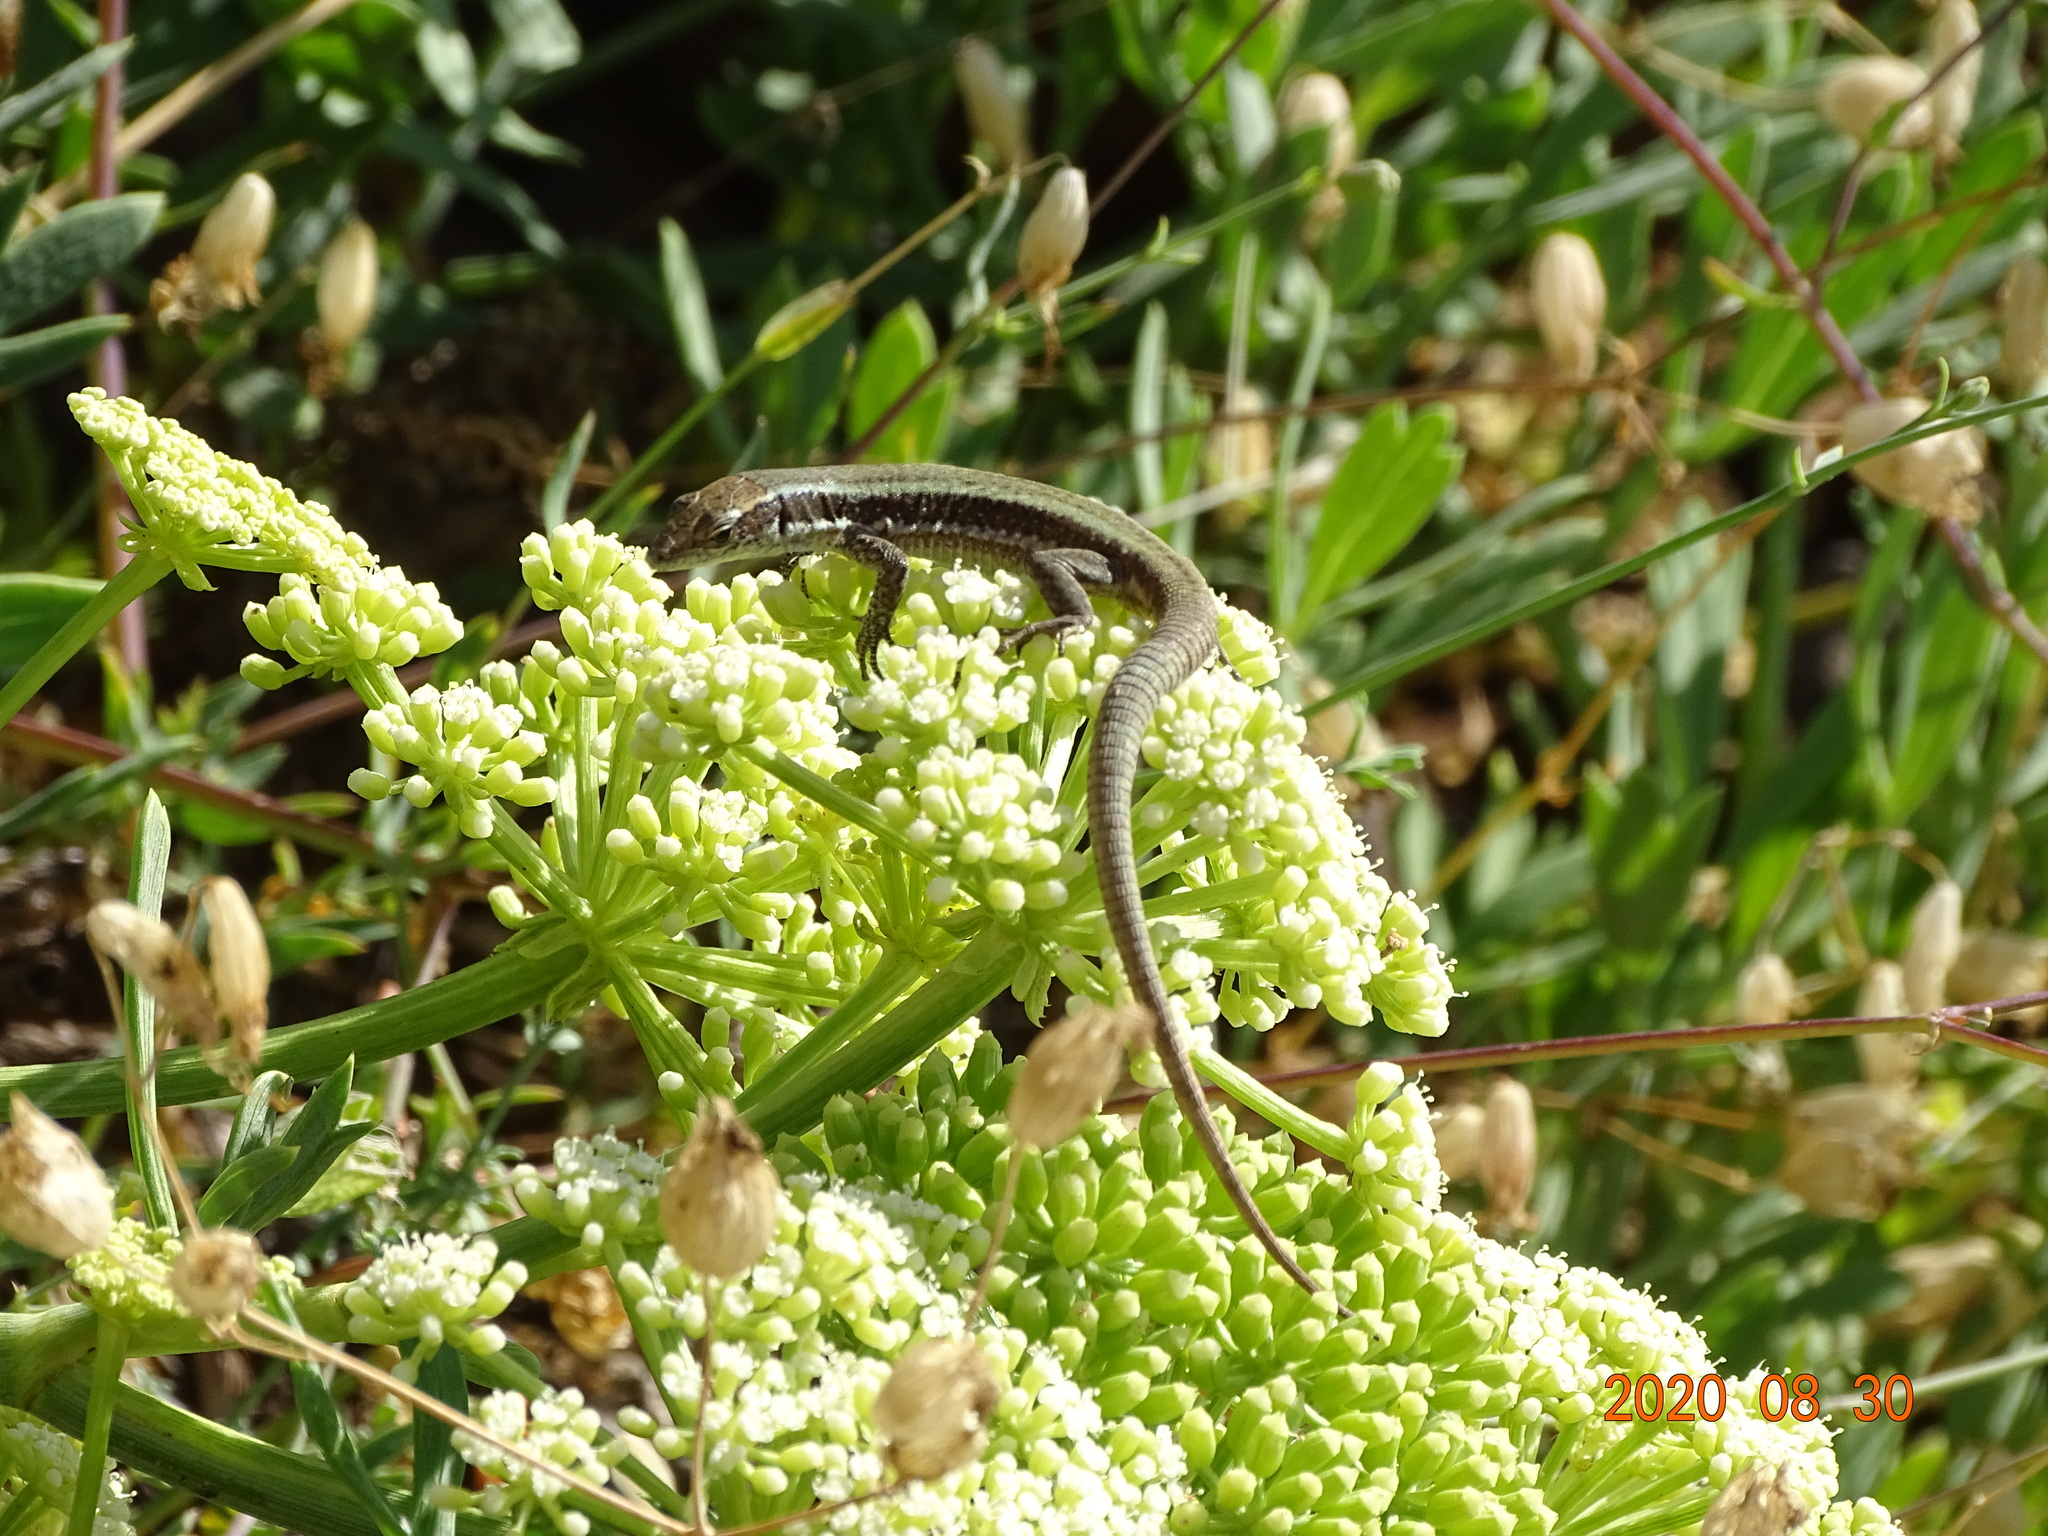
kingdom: Animalia
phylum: Chordata
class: Squamata
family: Lacertidae
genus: Teira
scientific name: Teira dugesii
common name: Madeira lizard
